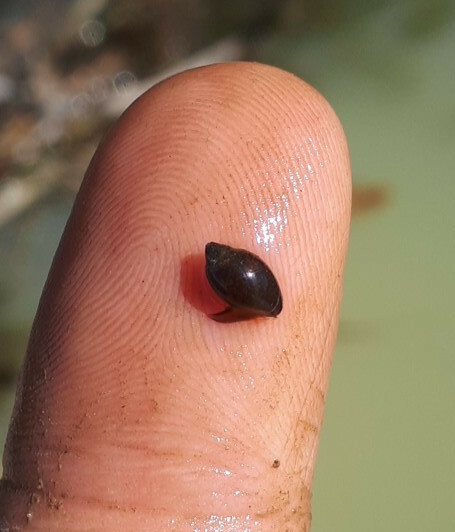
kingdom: Animalia
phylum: Mollusca
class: Gastropoda
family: Physidae
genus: Physella
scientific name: Physella acuta
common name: European physa
